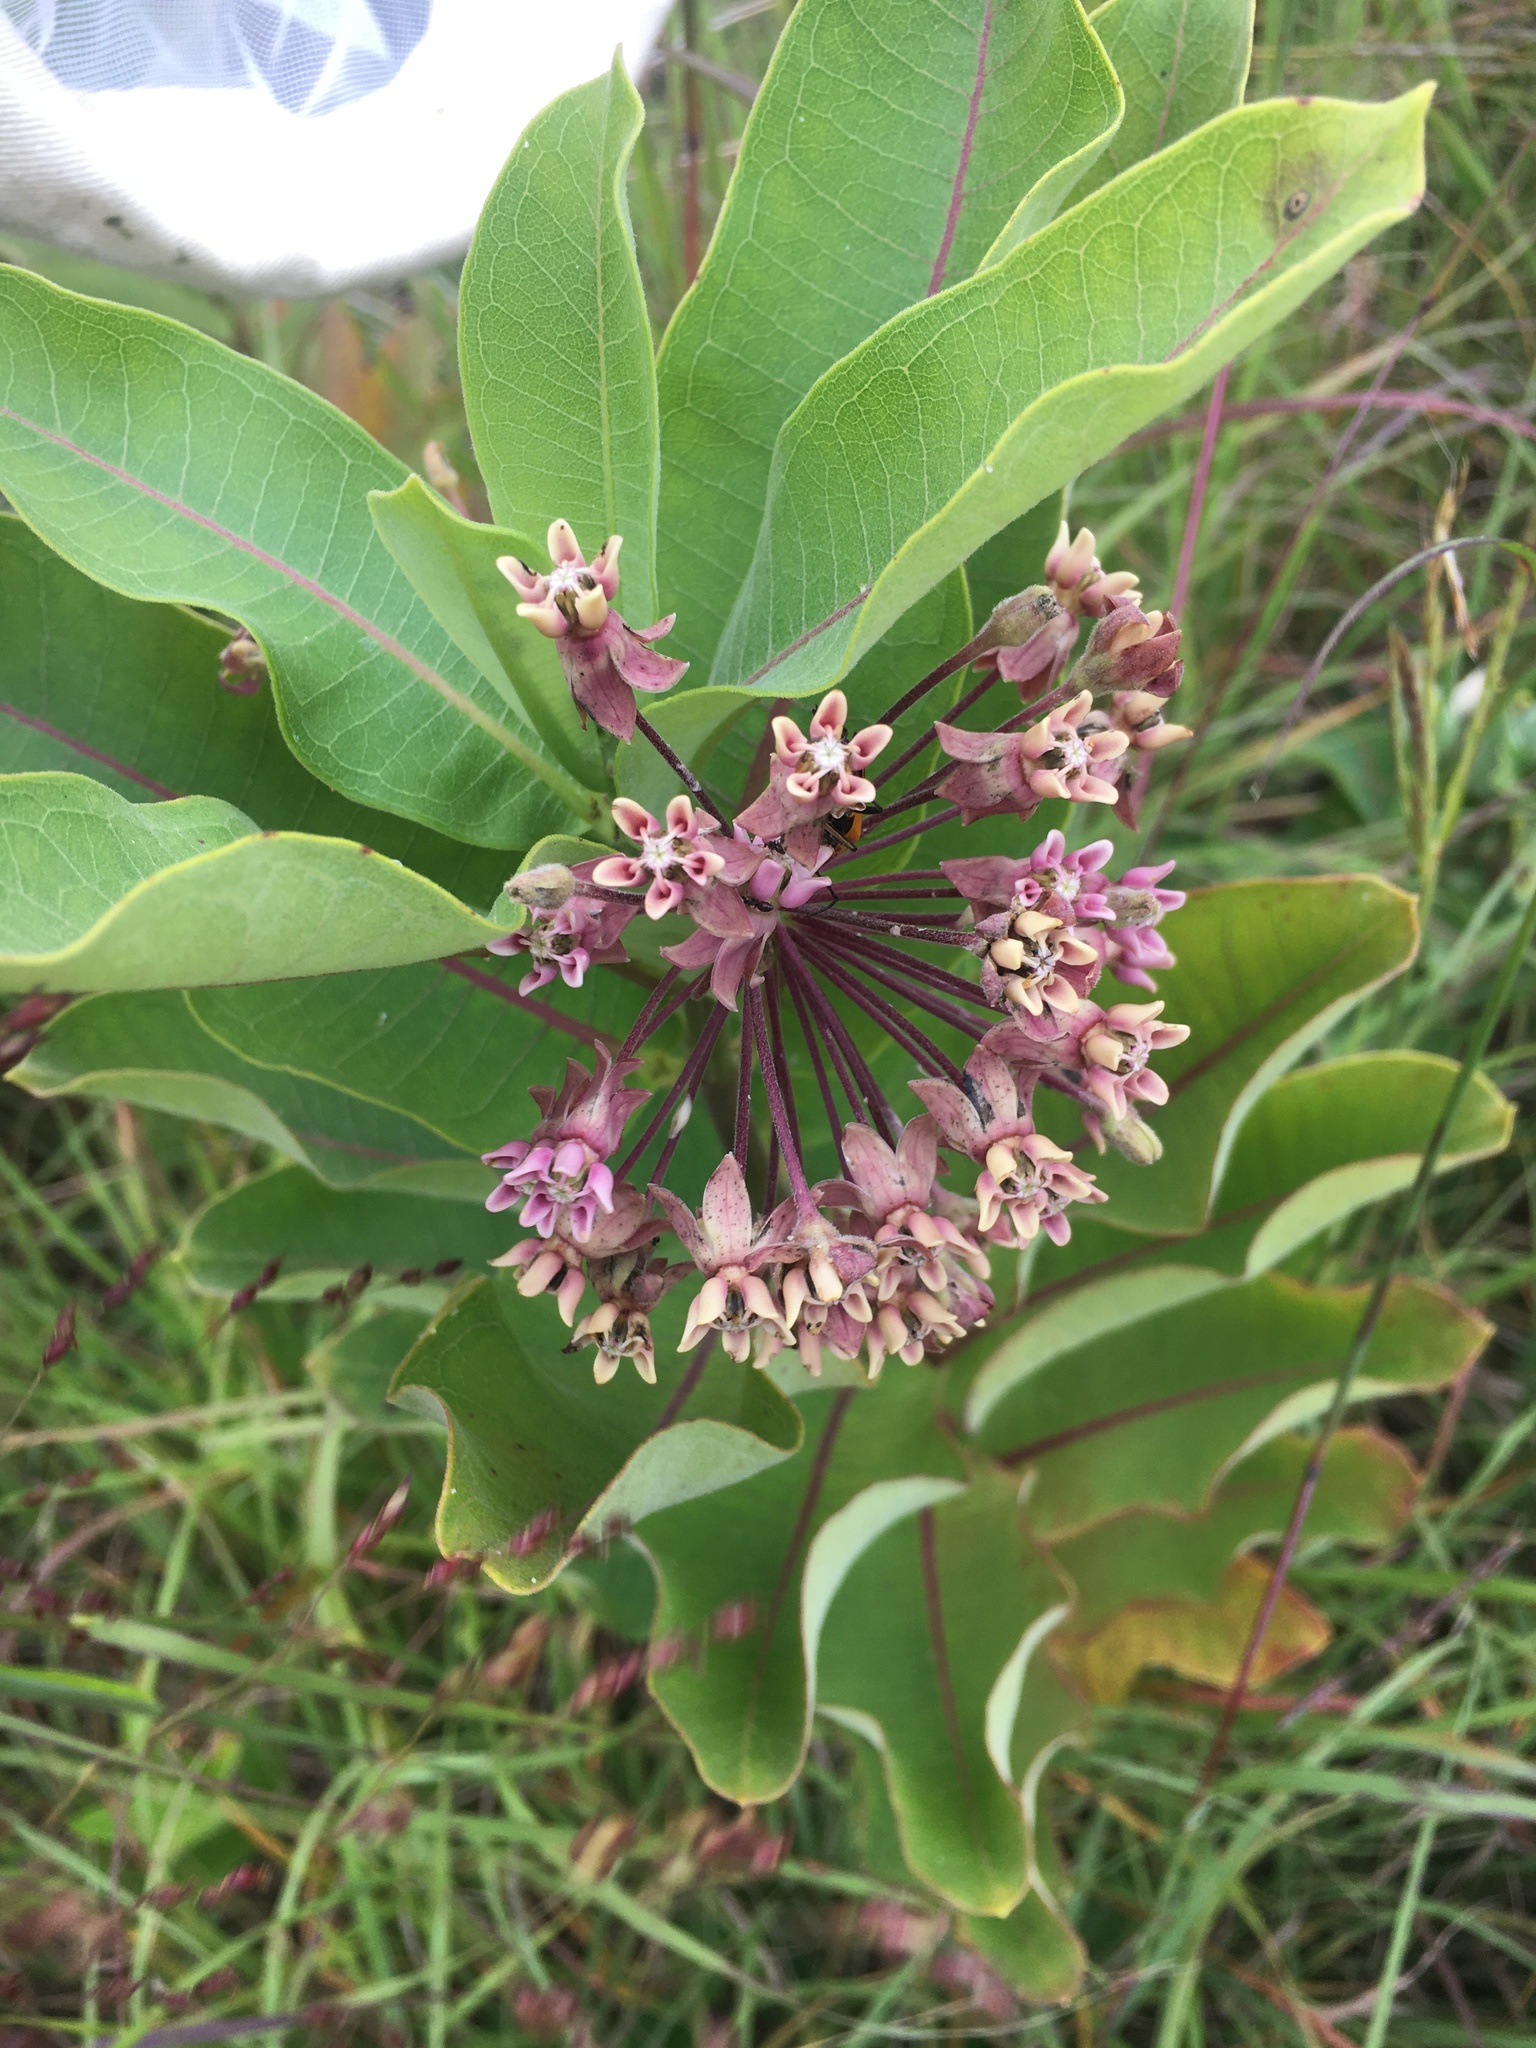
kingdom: Plantae
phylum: Tracheophyta
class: Magnoliopsida
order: Gentianales
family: Apocynaceae
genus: Asclepias
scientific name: Asclepias syriaca
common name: Common milkweed
